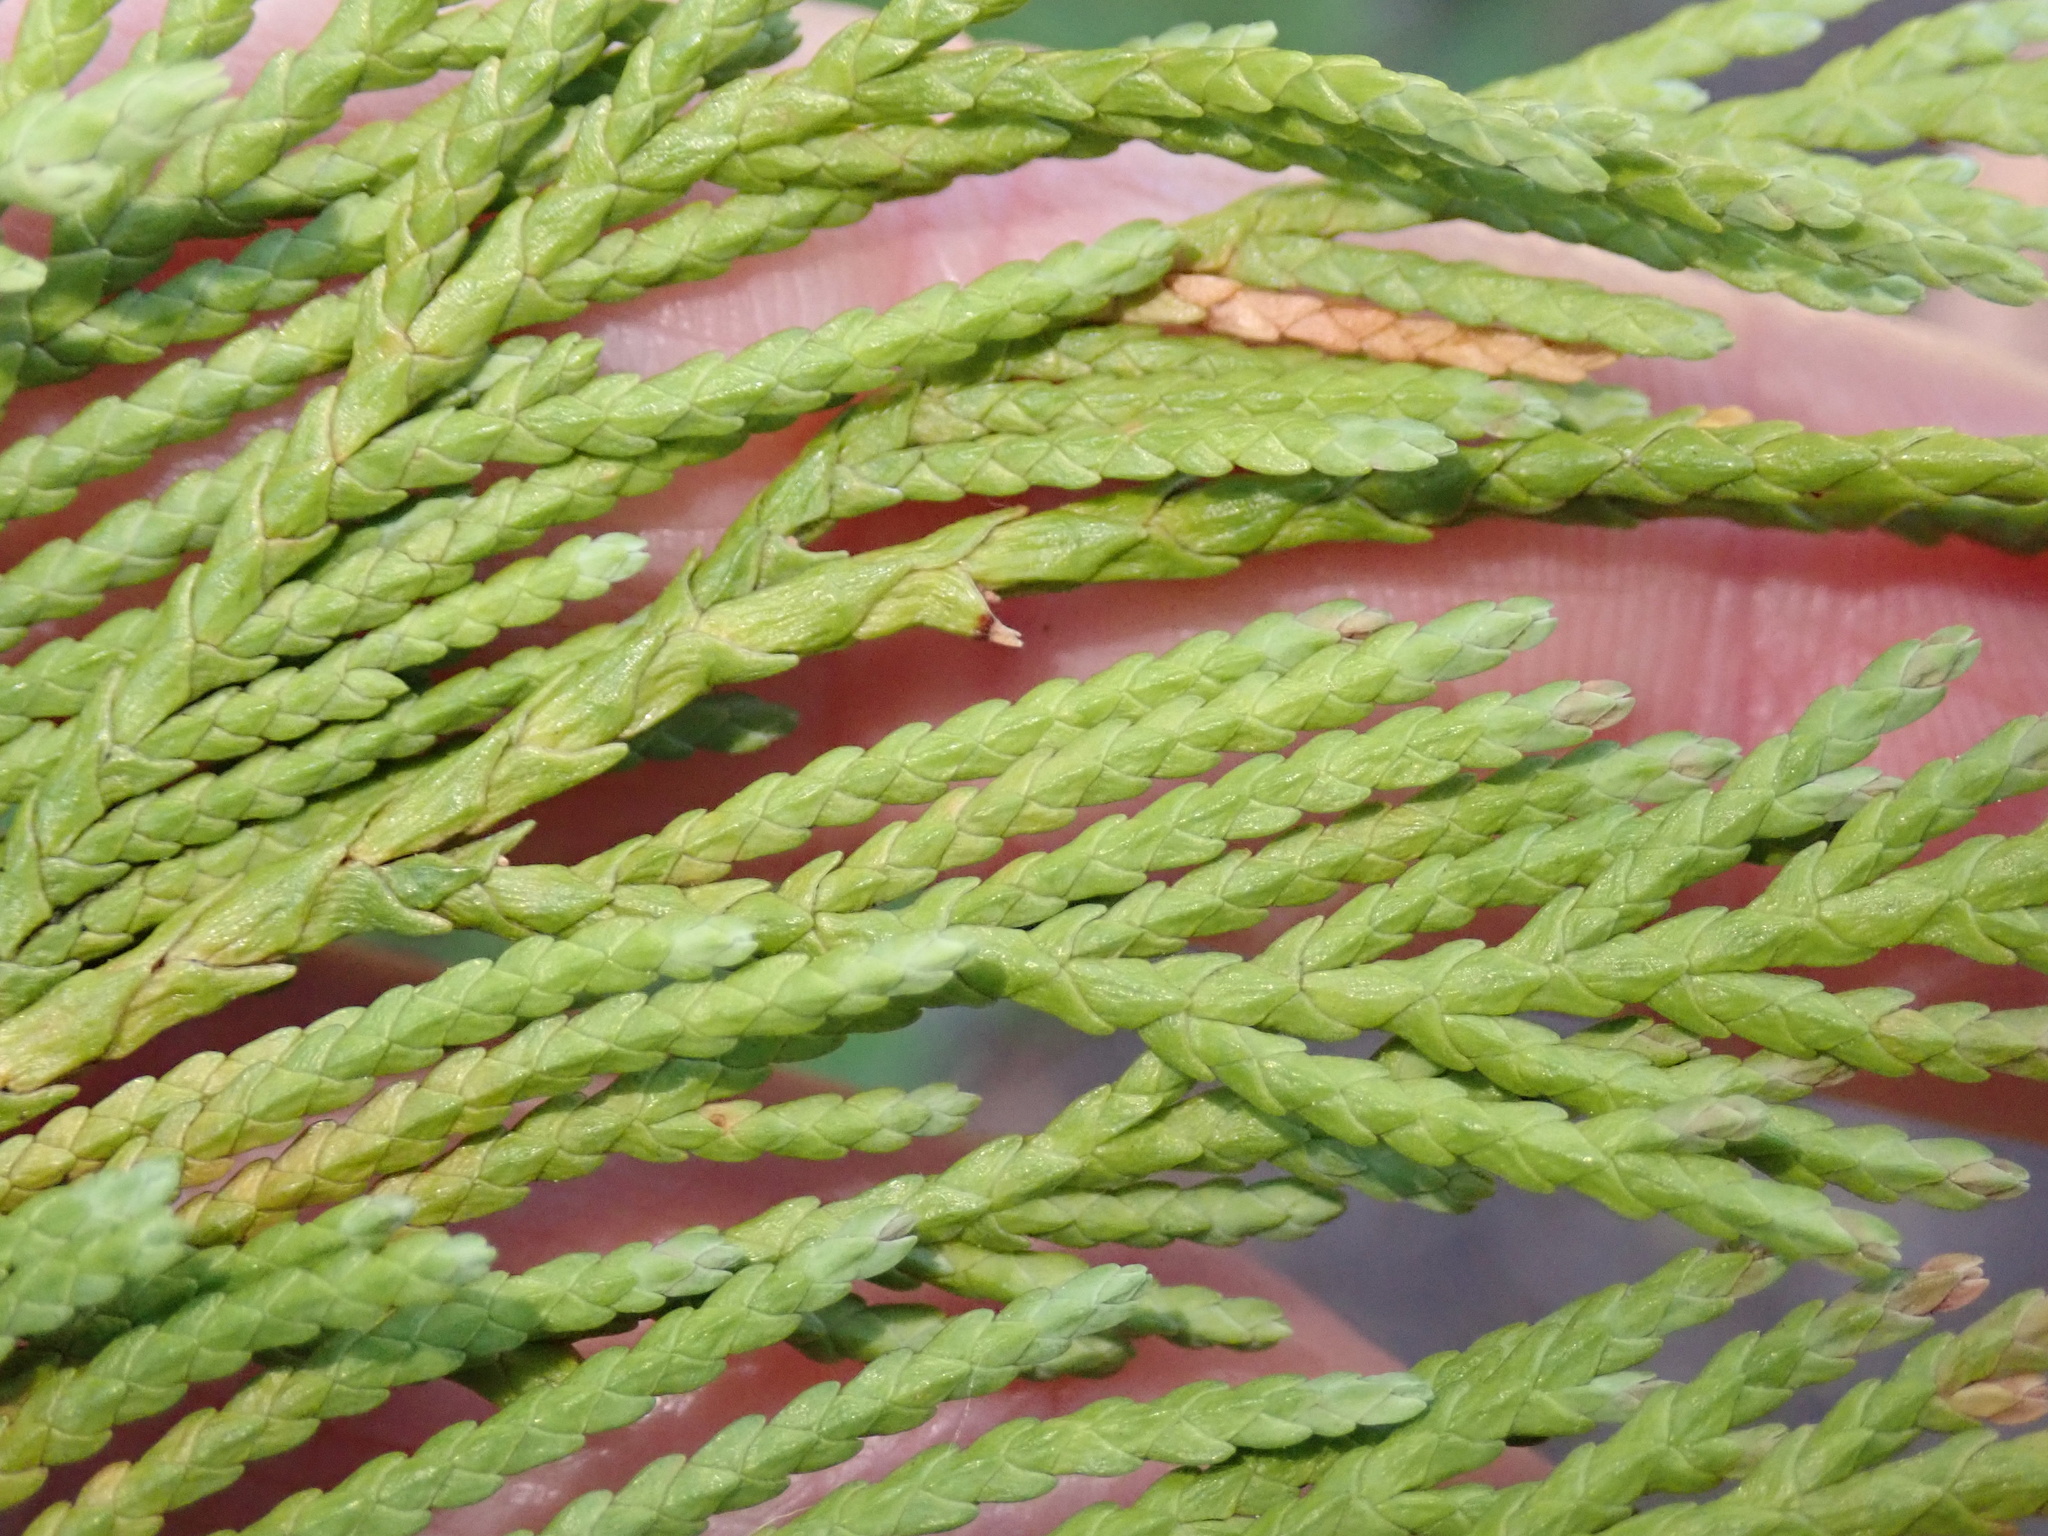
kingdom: Plantae
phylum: Tracheophyta
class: Pinopsida
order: Pinales
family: Cupressaceae
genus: Xanthocyparis
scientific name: Xanthocyparis nootkatensis
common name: Nootka cypress
